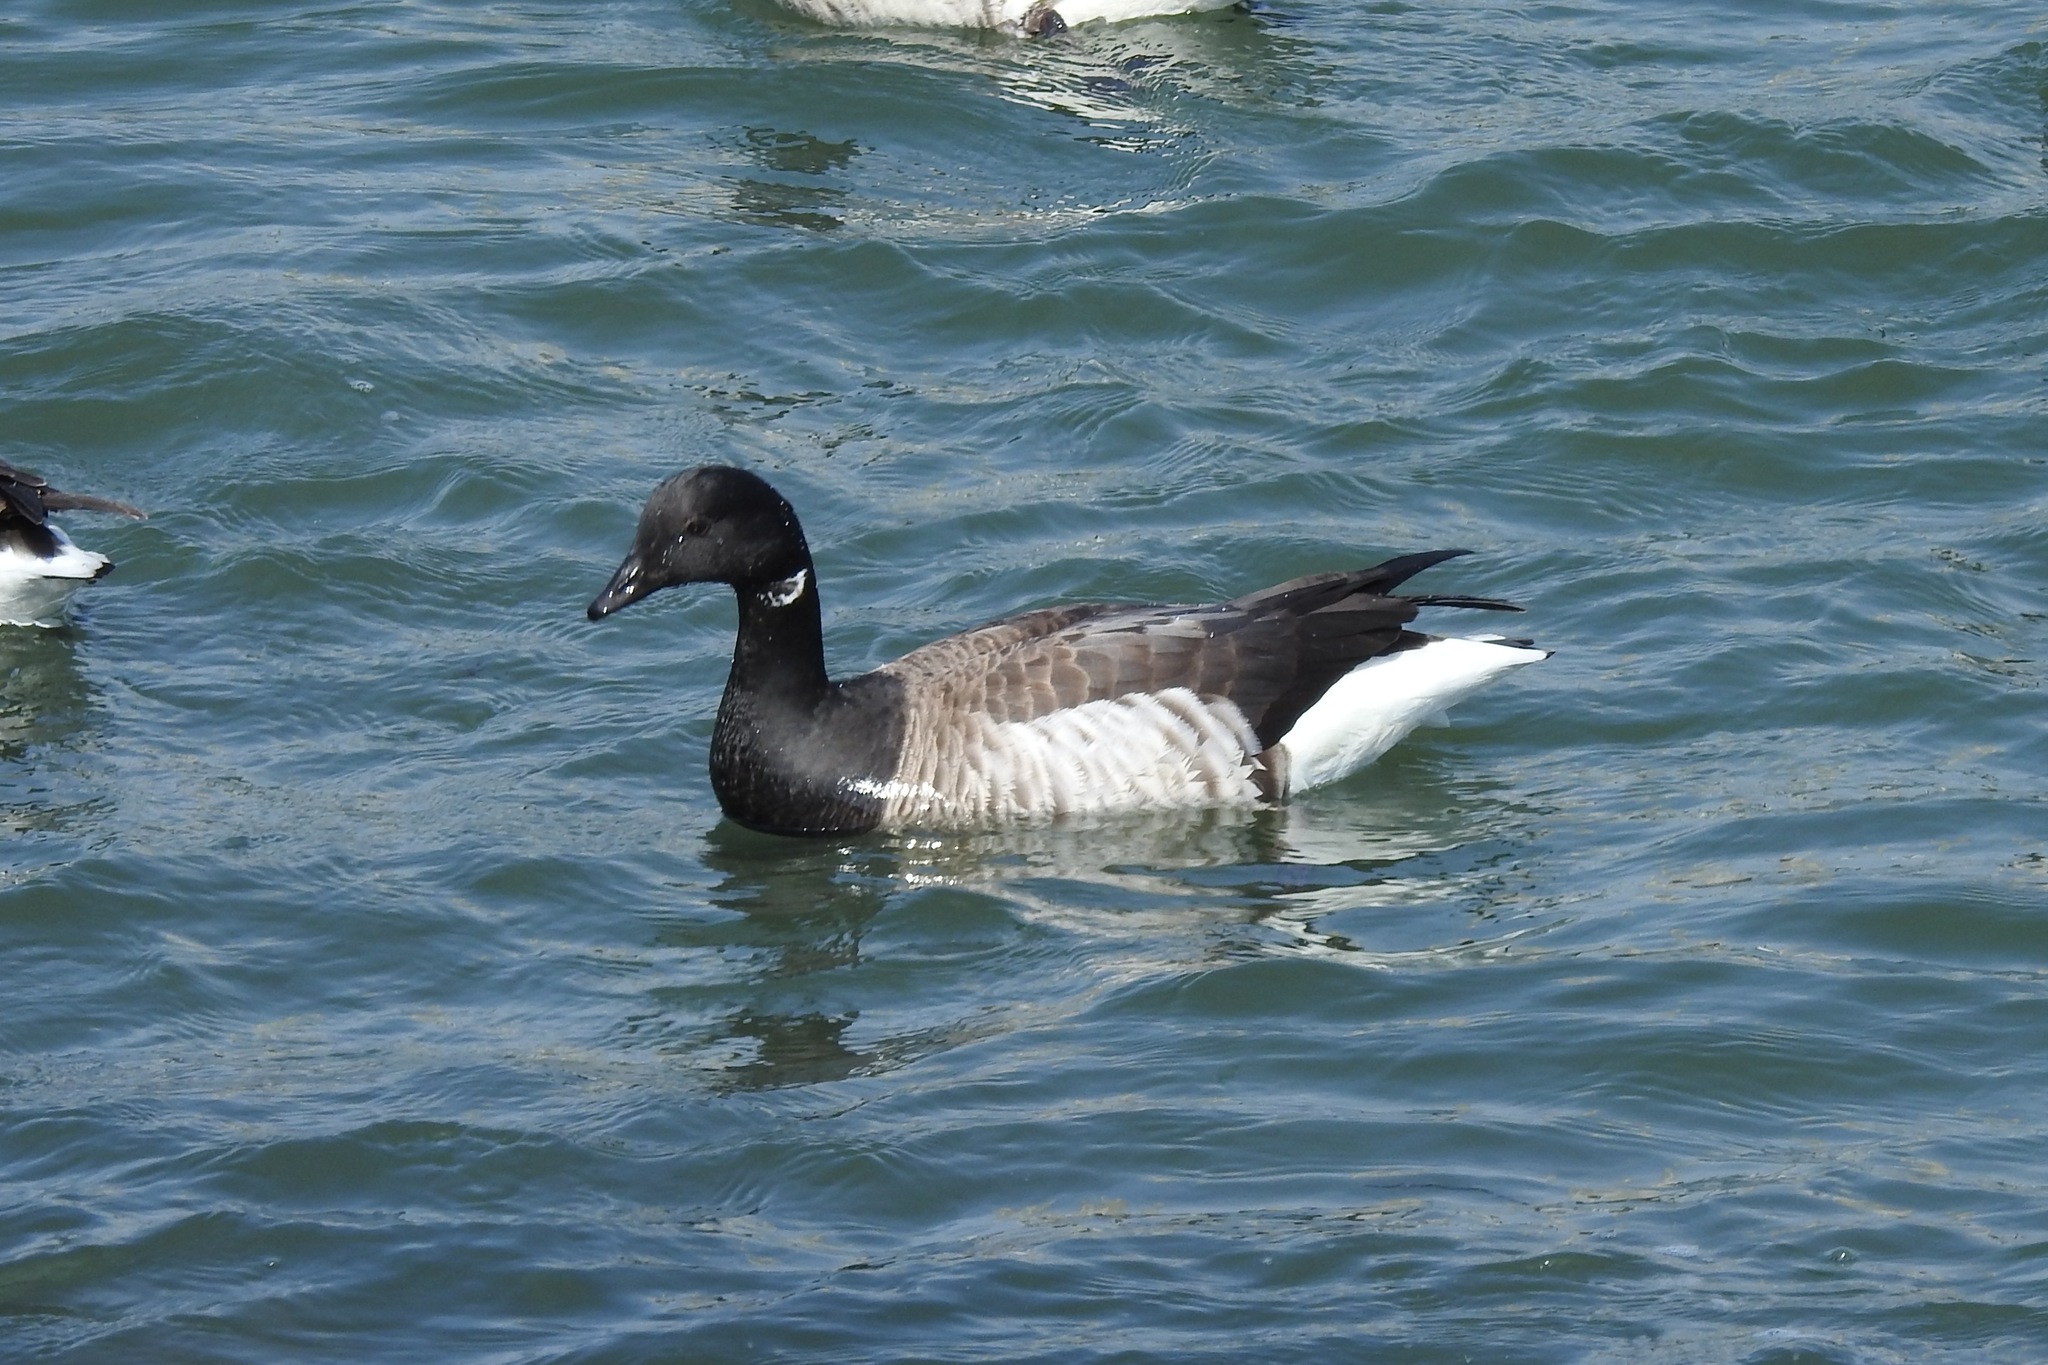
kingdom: Animalia
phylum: Chordata
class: Aves
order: Anseriformes
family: Anatidae
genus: Branta
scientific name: Branta bernicla
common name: Brant goose
